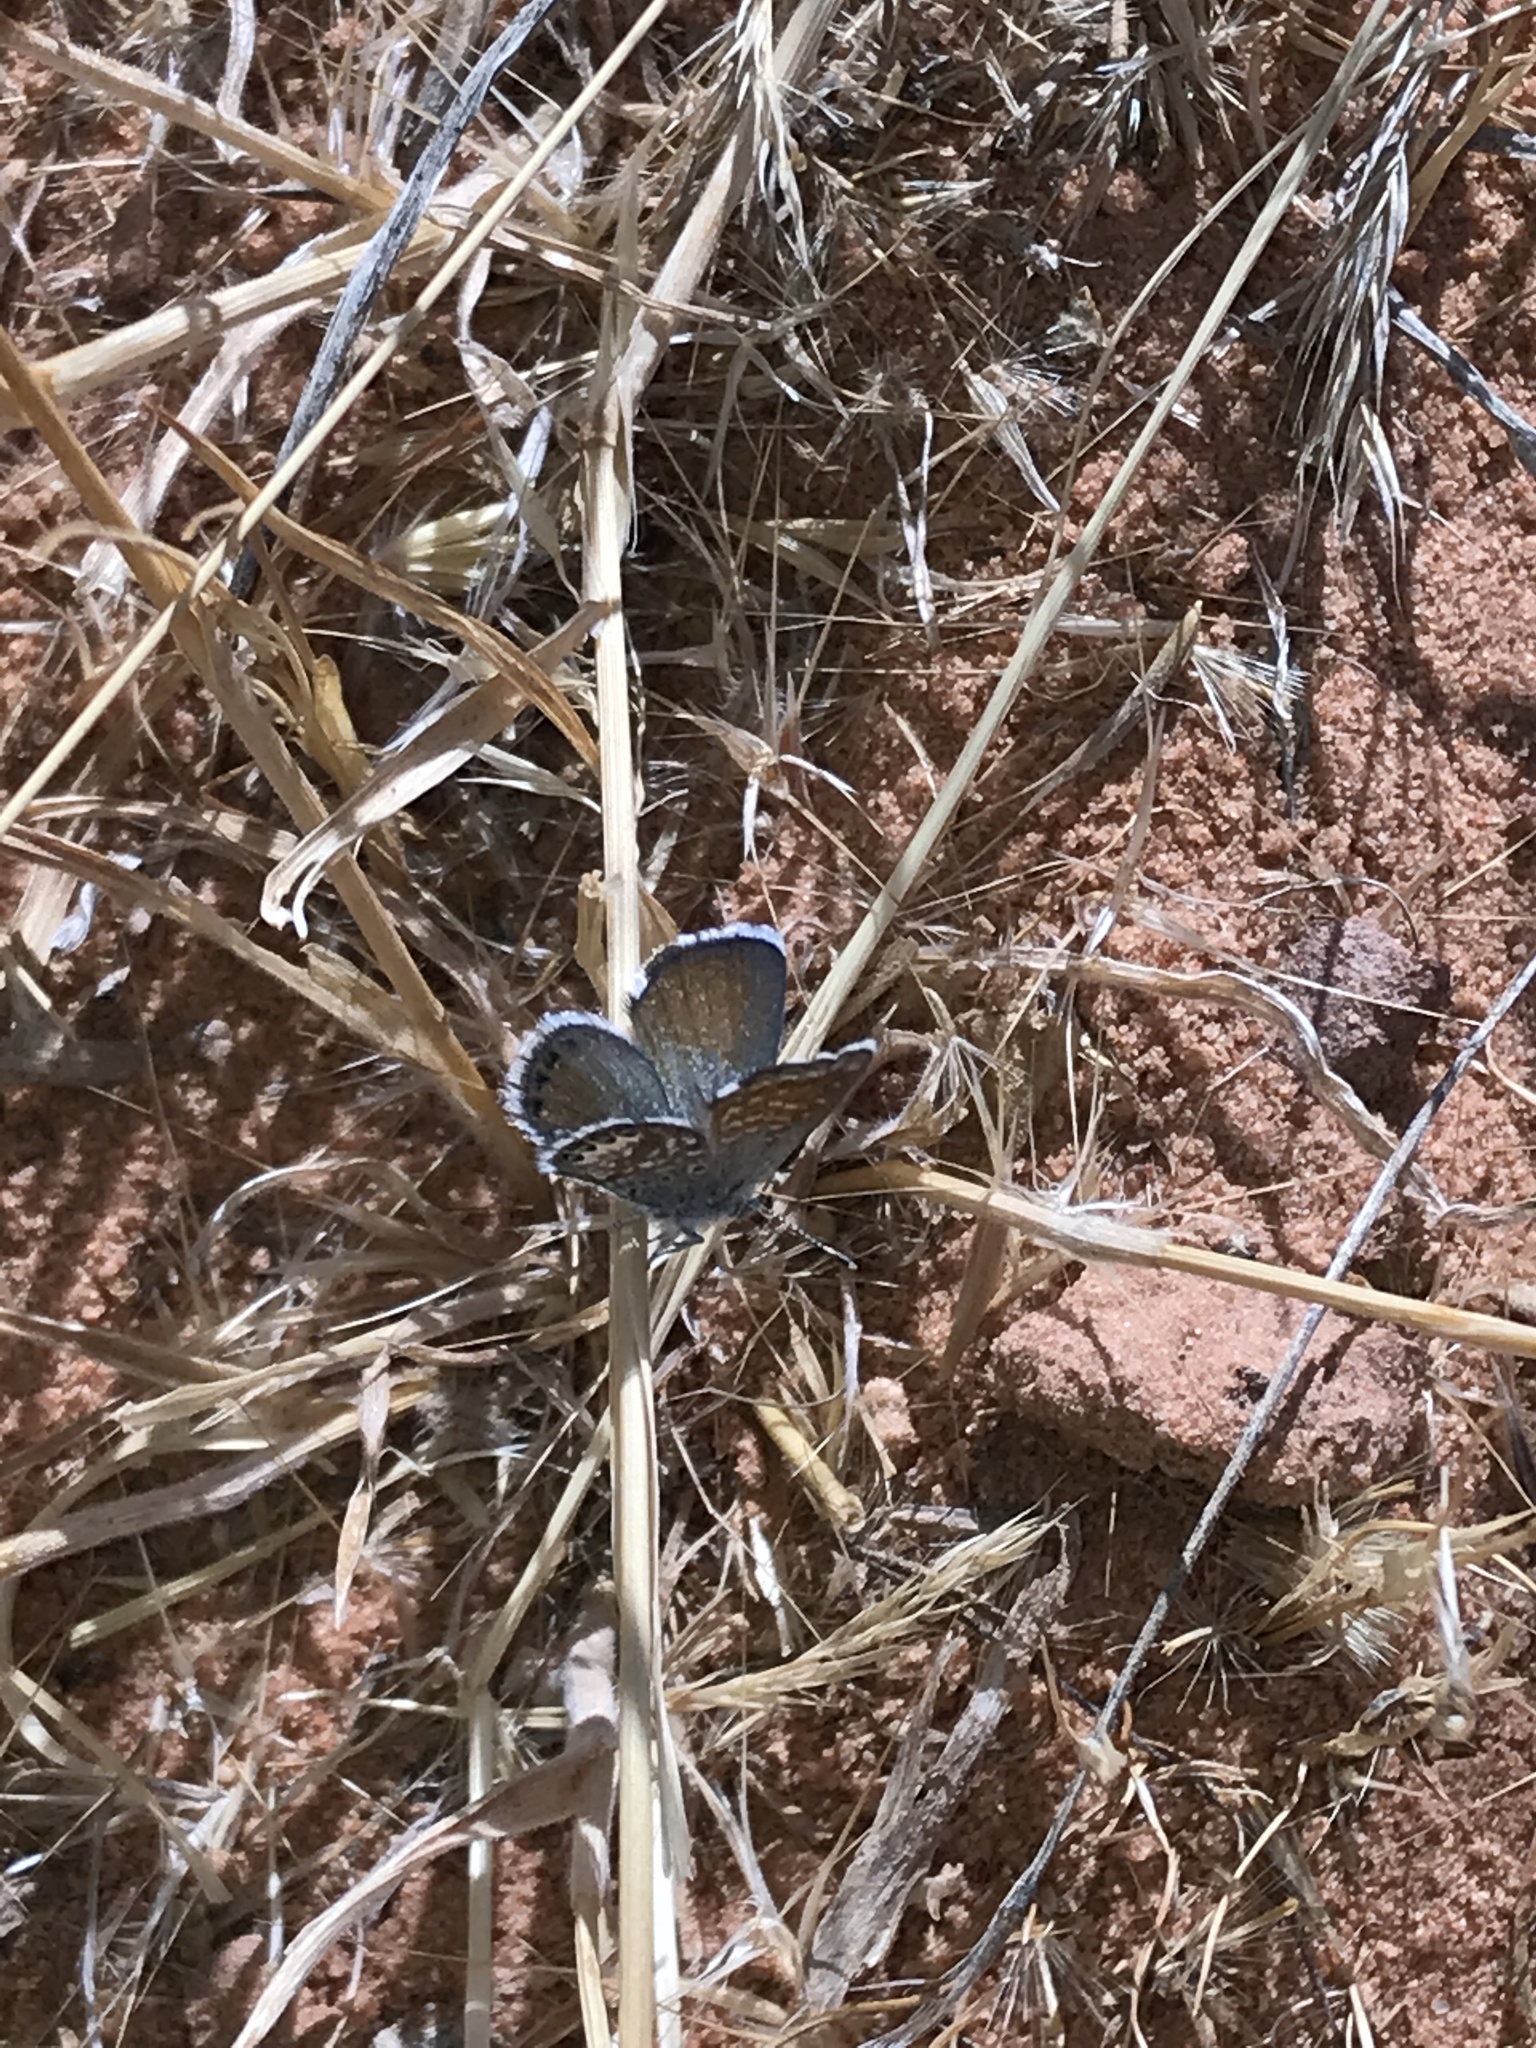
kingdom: Animalia
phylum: Arthropoda
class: Insecta
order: Lepidoptera
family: Lycaenidae
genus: Brephidium
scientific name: Brephidium exilis
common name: Pygmy blue
